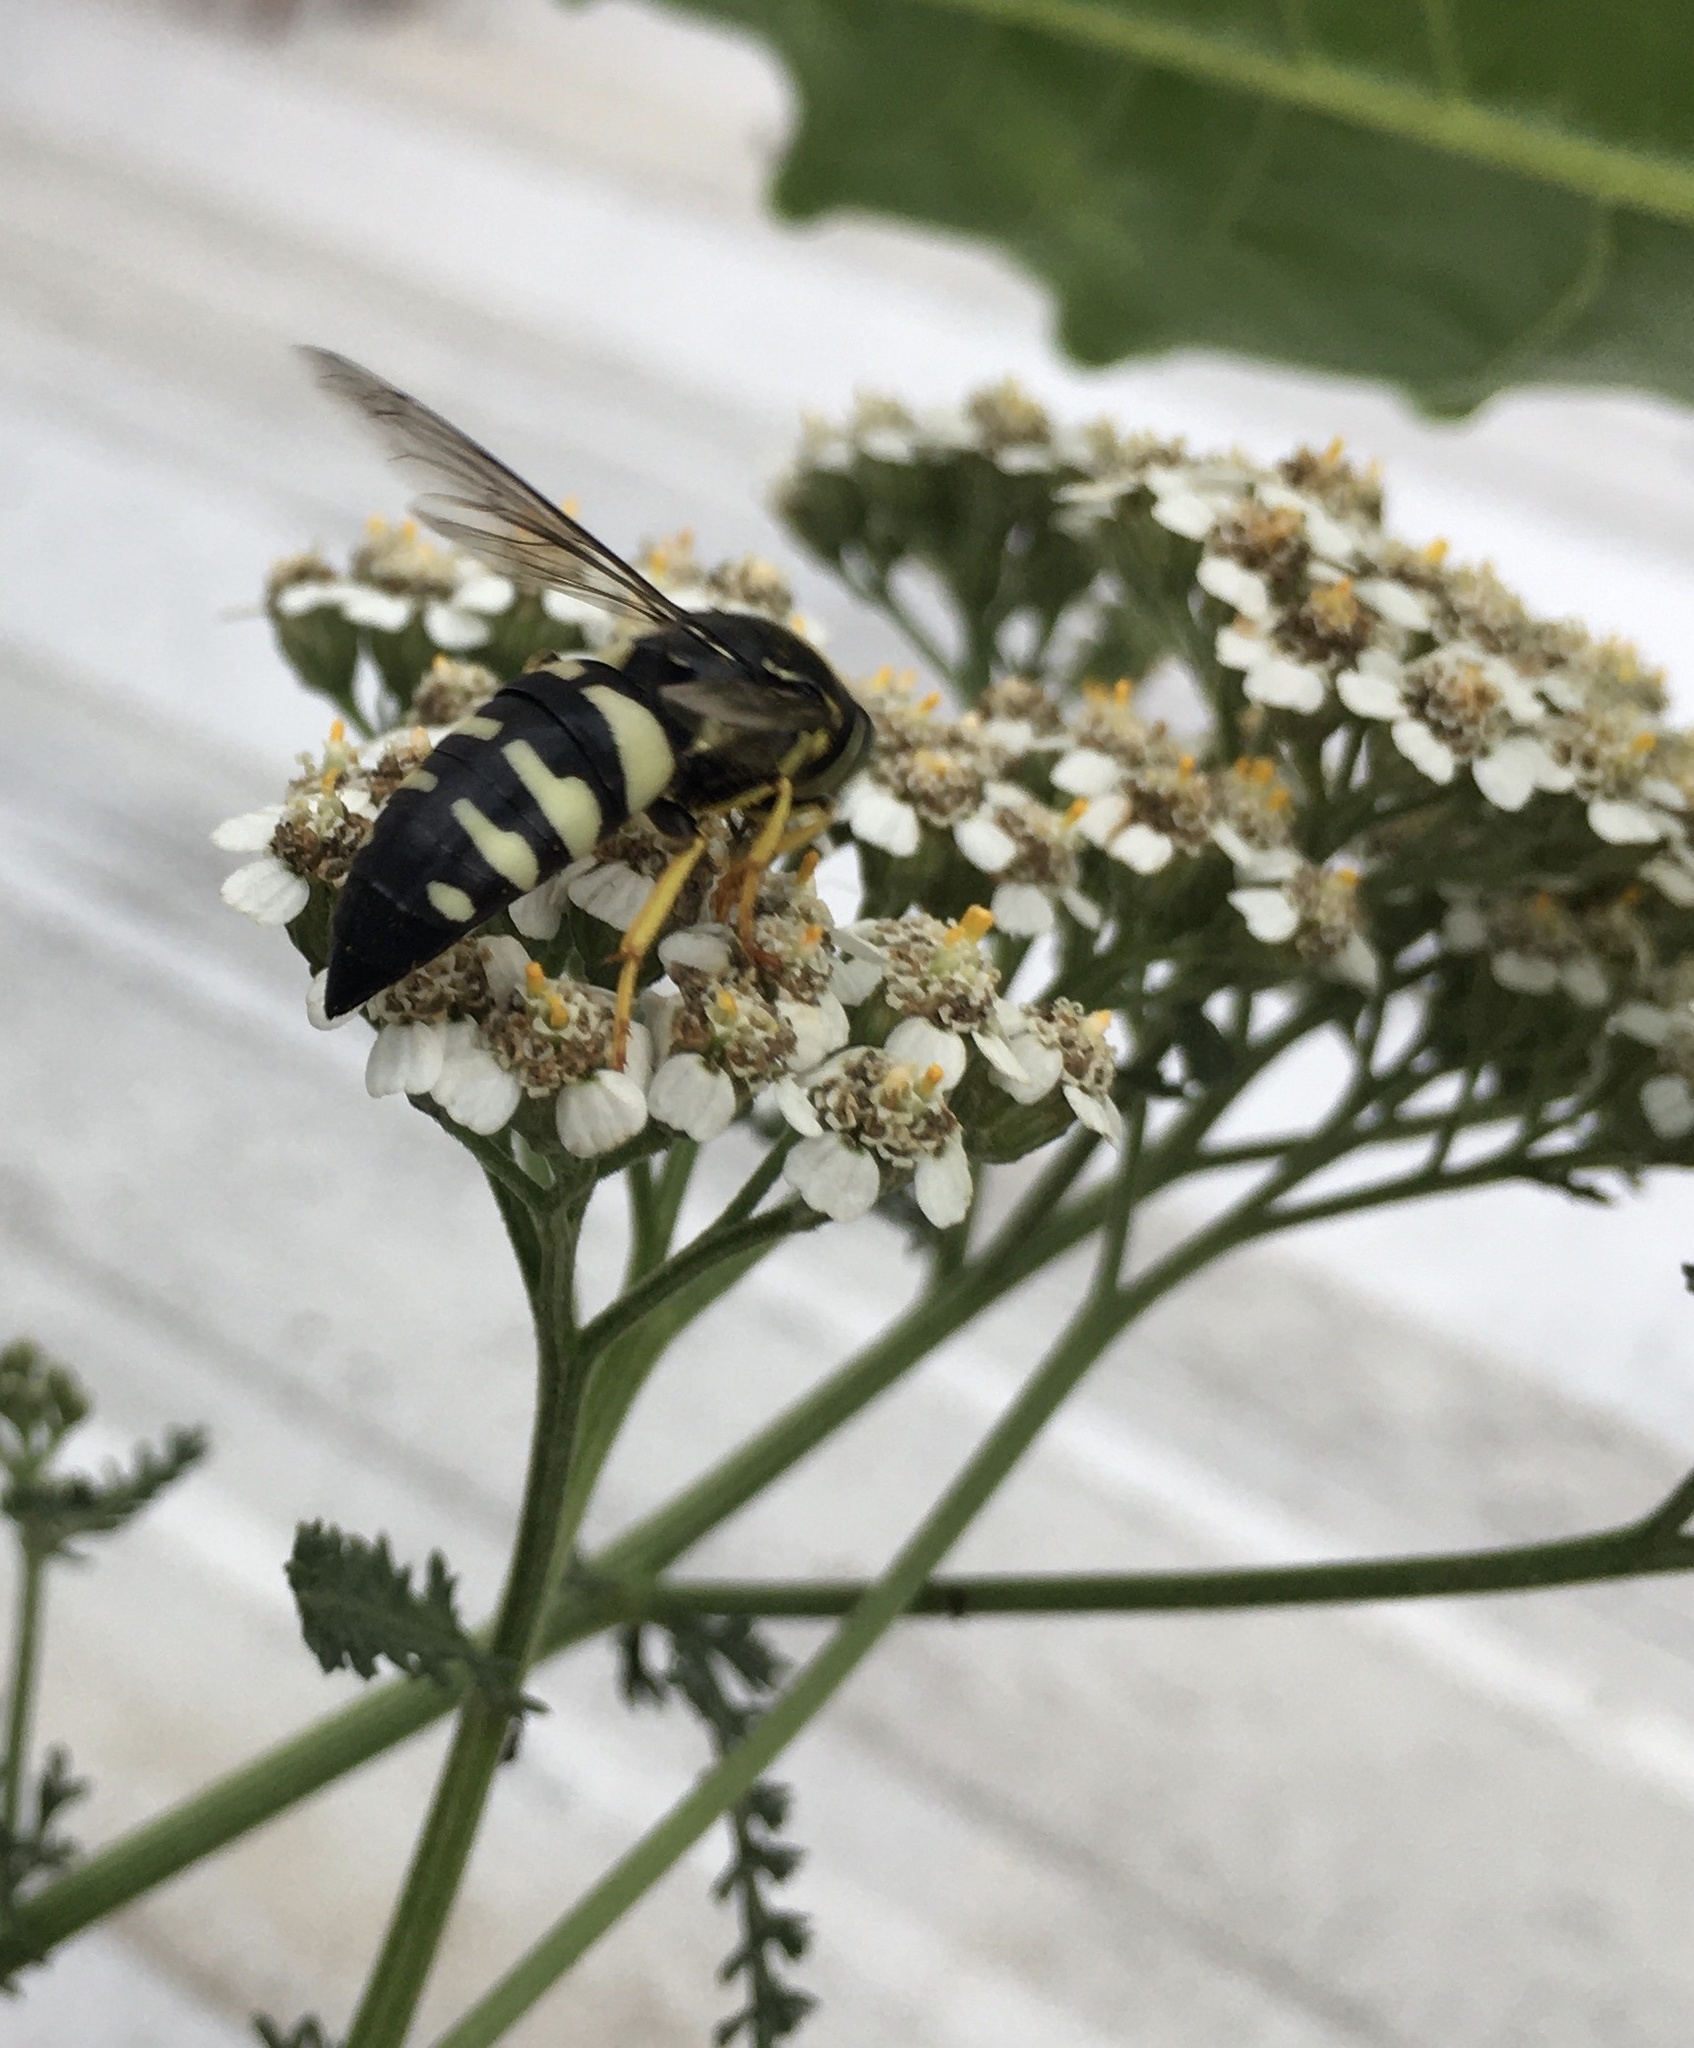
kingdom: Animalia
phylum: Arthropoda
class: Insecta
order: Hymenoptera
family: Crabronidae
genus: Bicyrtes
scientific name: Bicyrtes quadrifasciatus
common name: Four-banded stink bug hunter wasp
